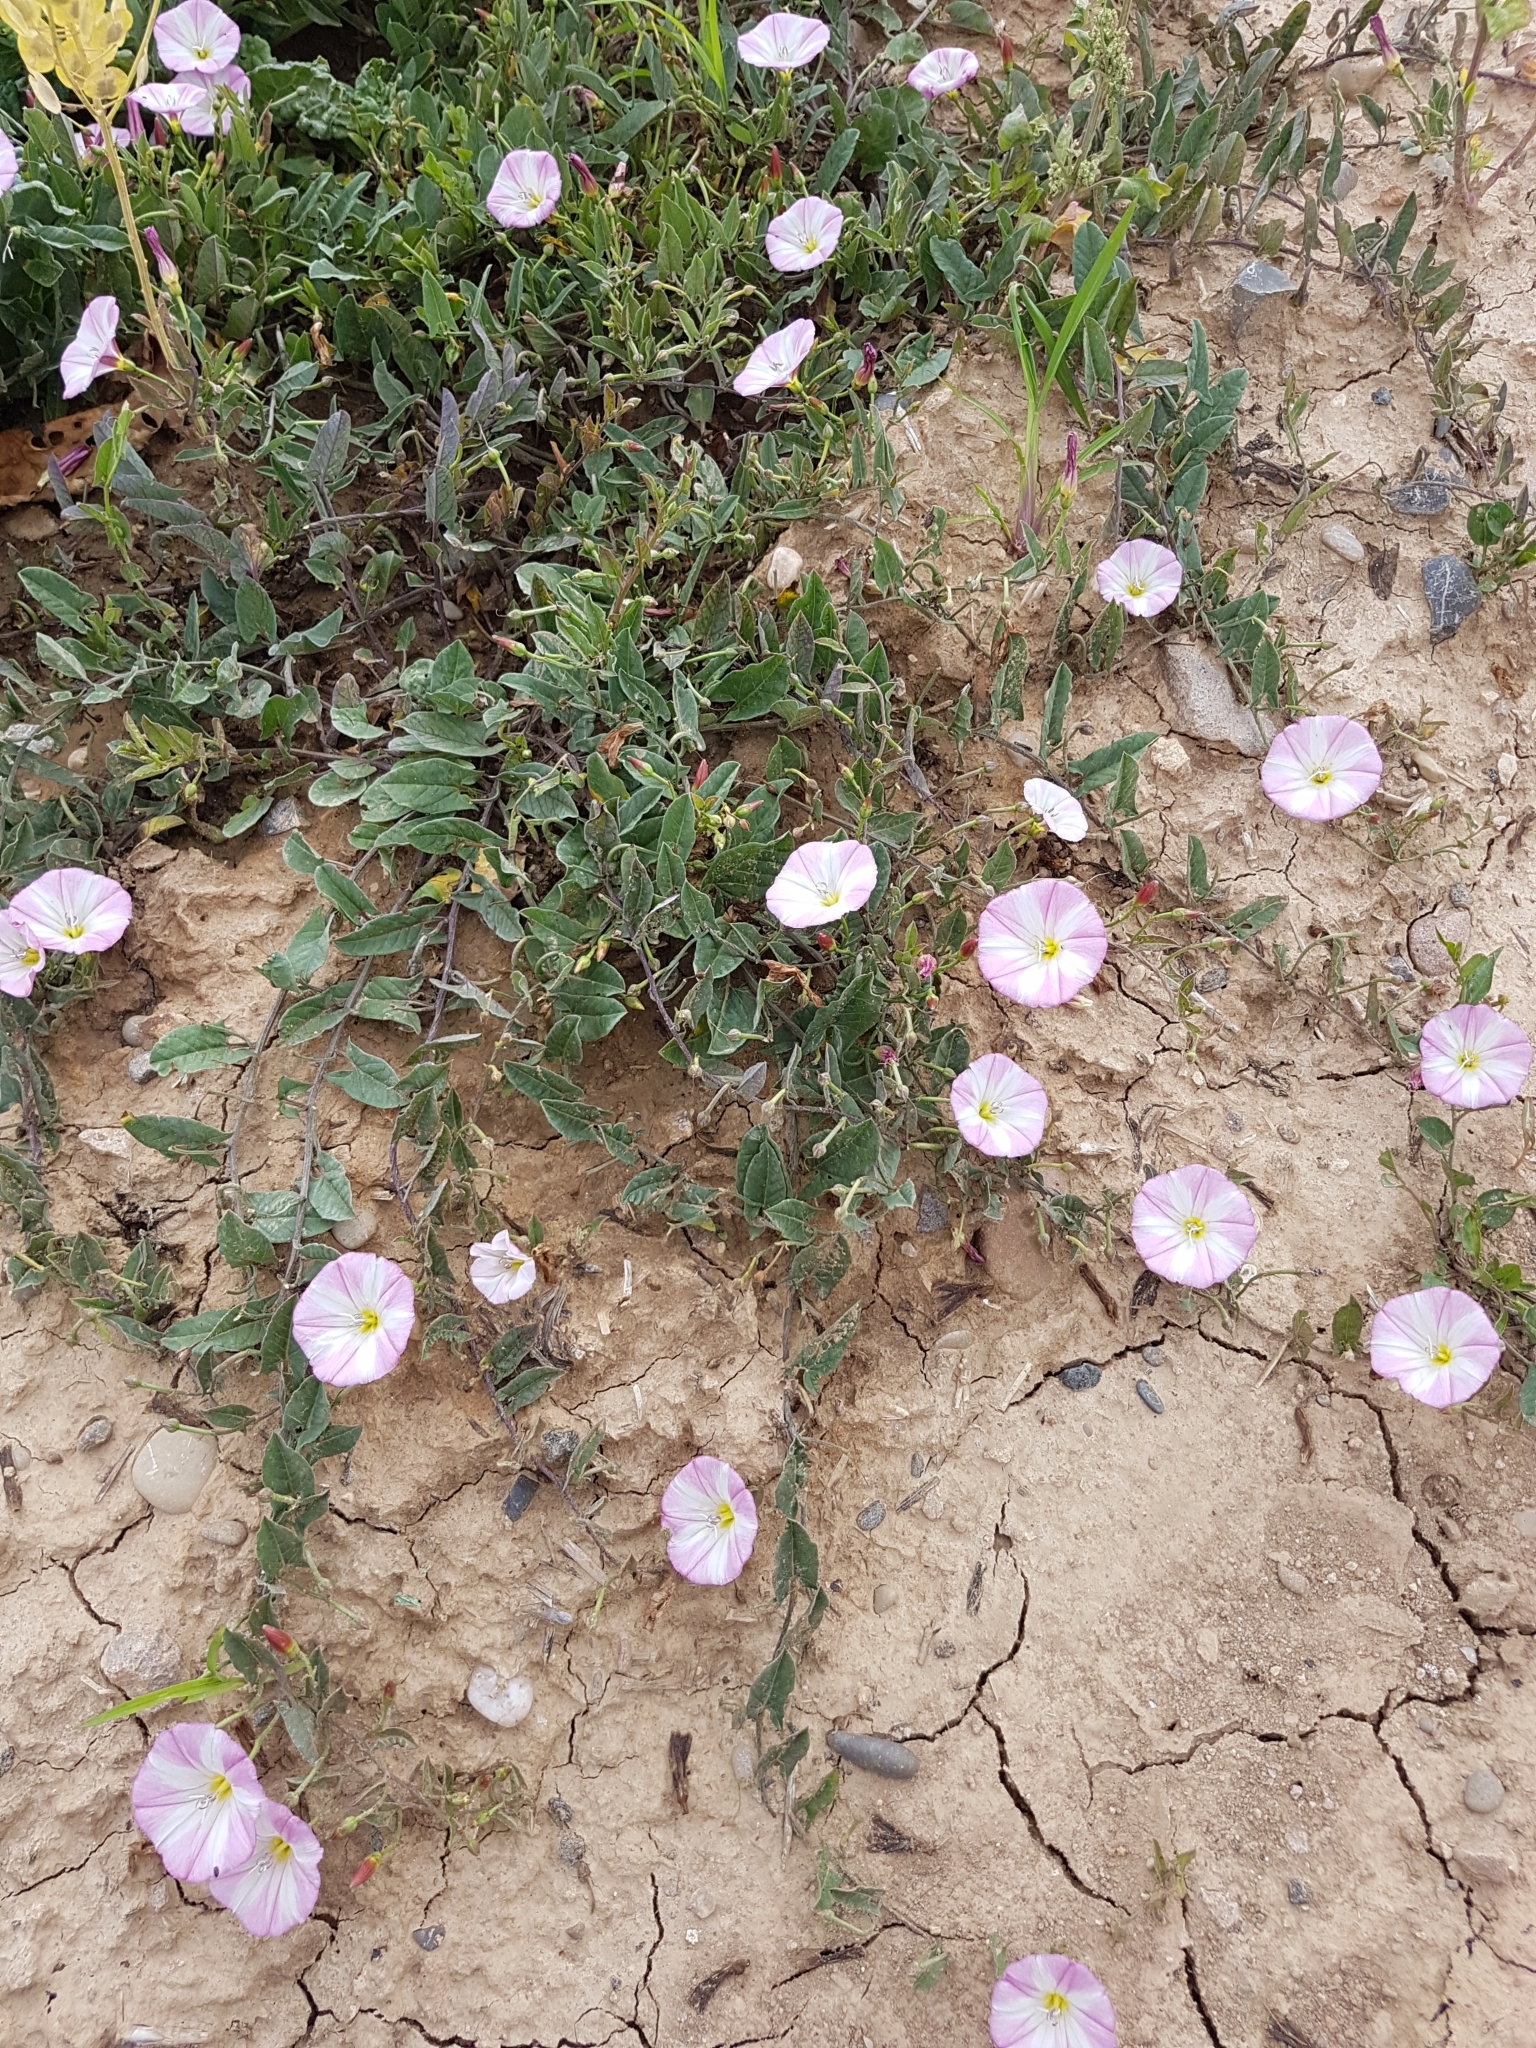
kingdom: Plantae
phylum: Tracheophyta
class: Magnoliopsida
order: Solanales
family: Convolvulaceae
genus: Convolvulus
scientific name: Convolvulus arvensis
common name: Field bindweed
